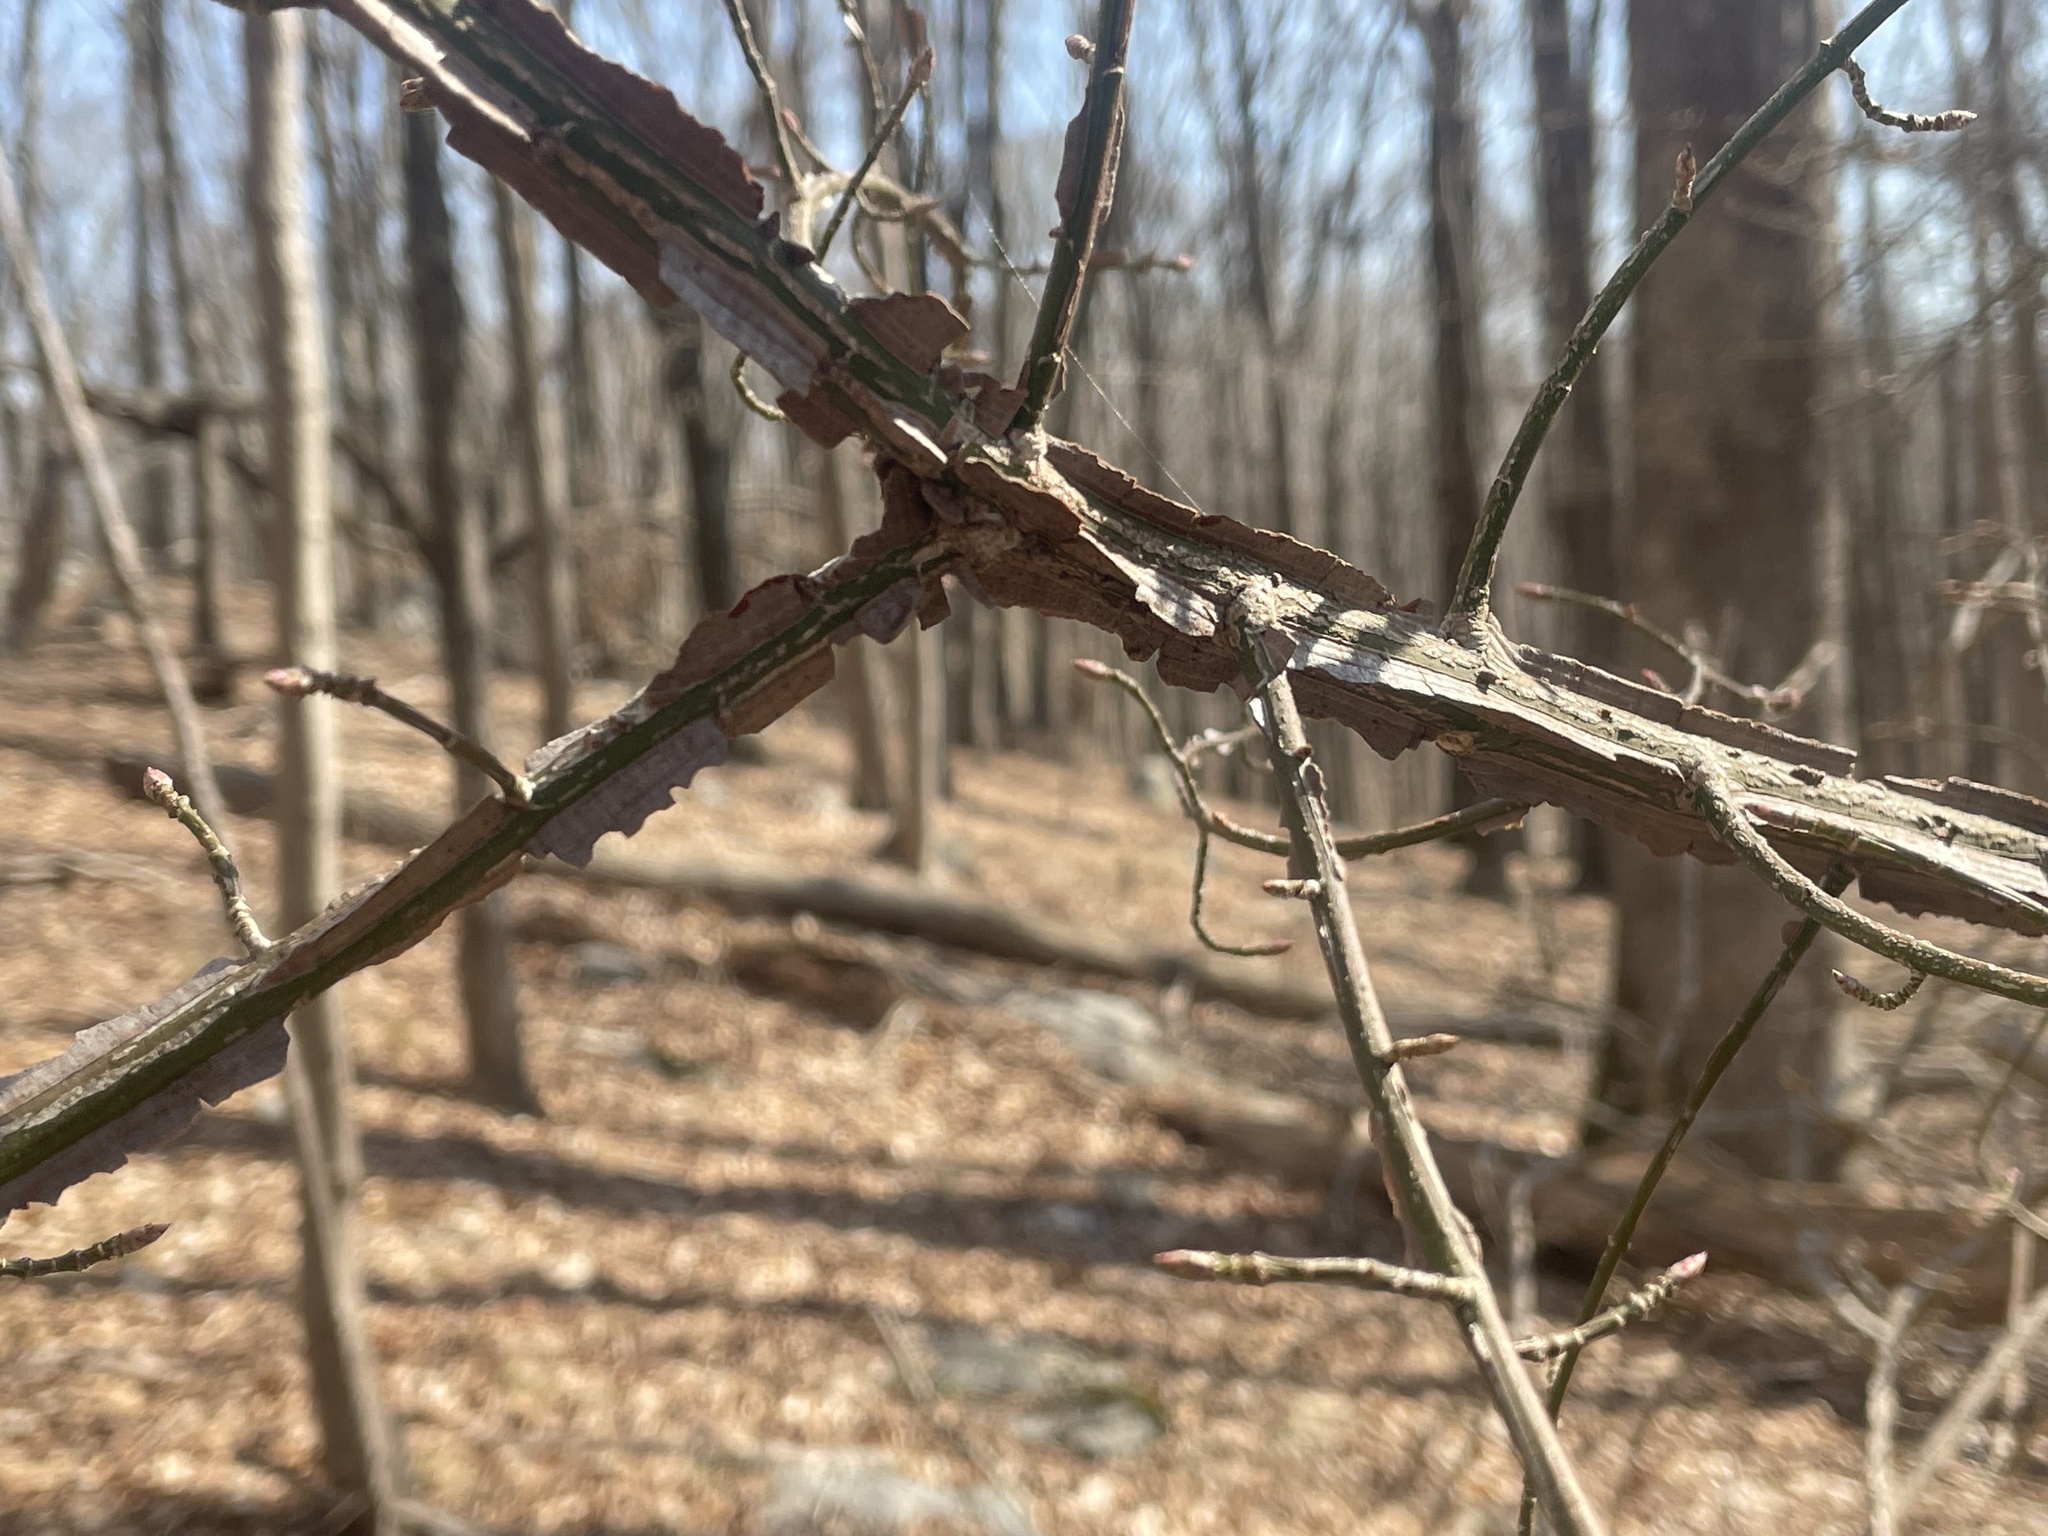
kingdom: Plantae
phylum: Tracheophyta
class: Magnoliopsida
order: Celastrales
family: Celastraceae
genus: Euonymus
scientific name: Euonymus alatus
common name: Winged euonymus
